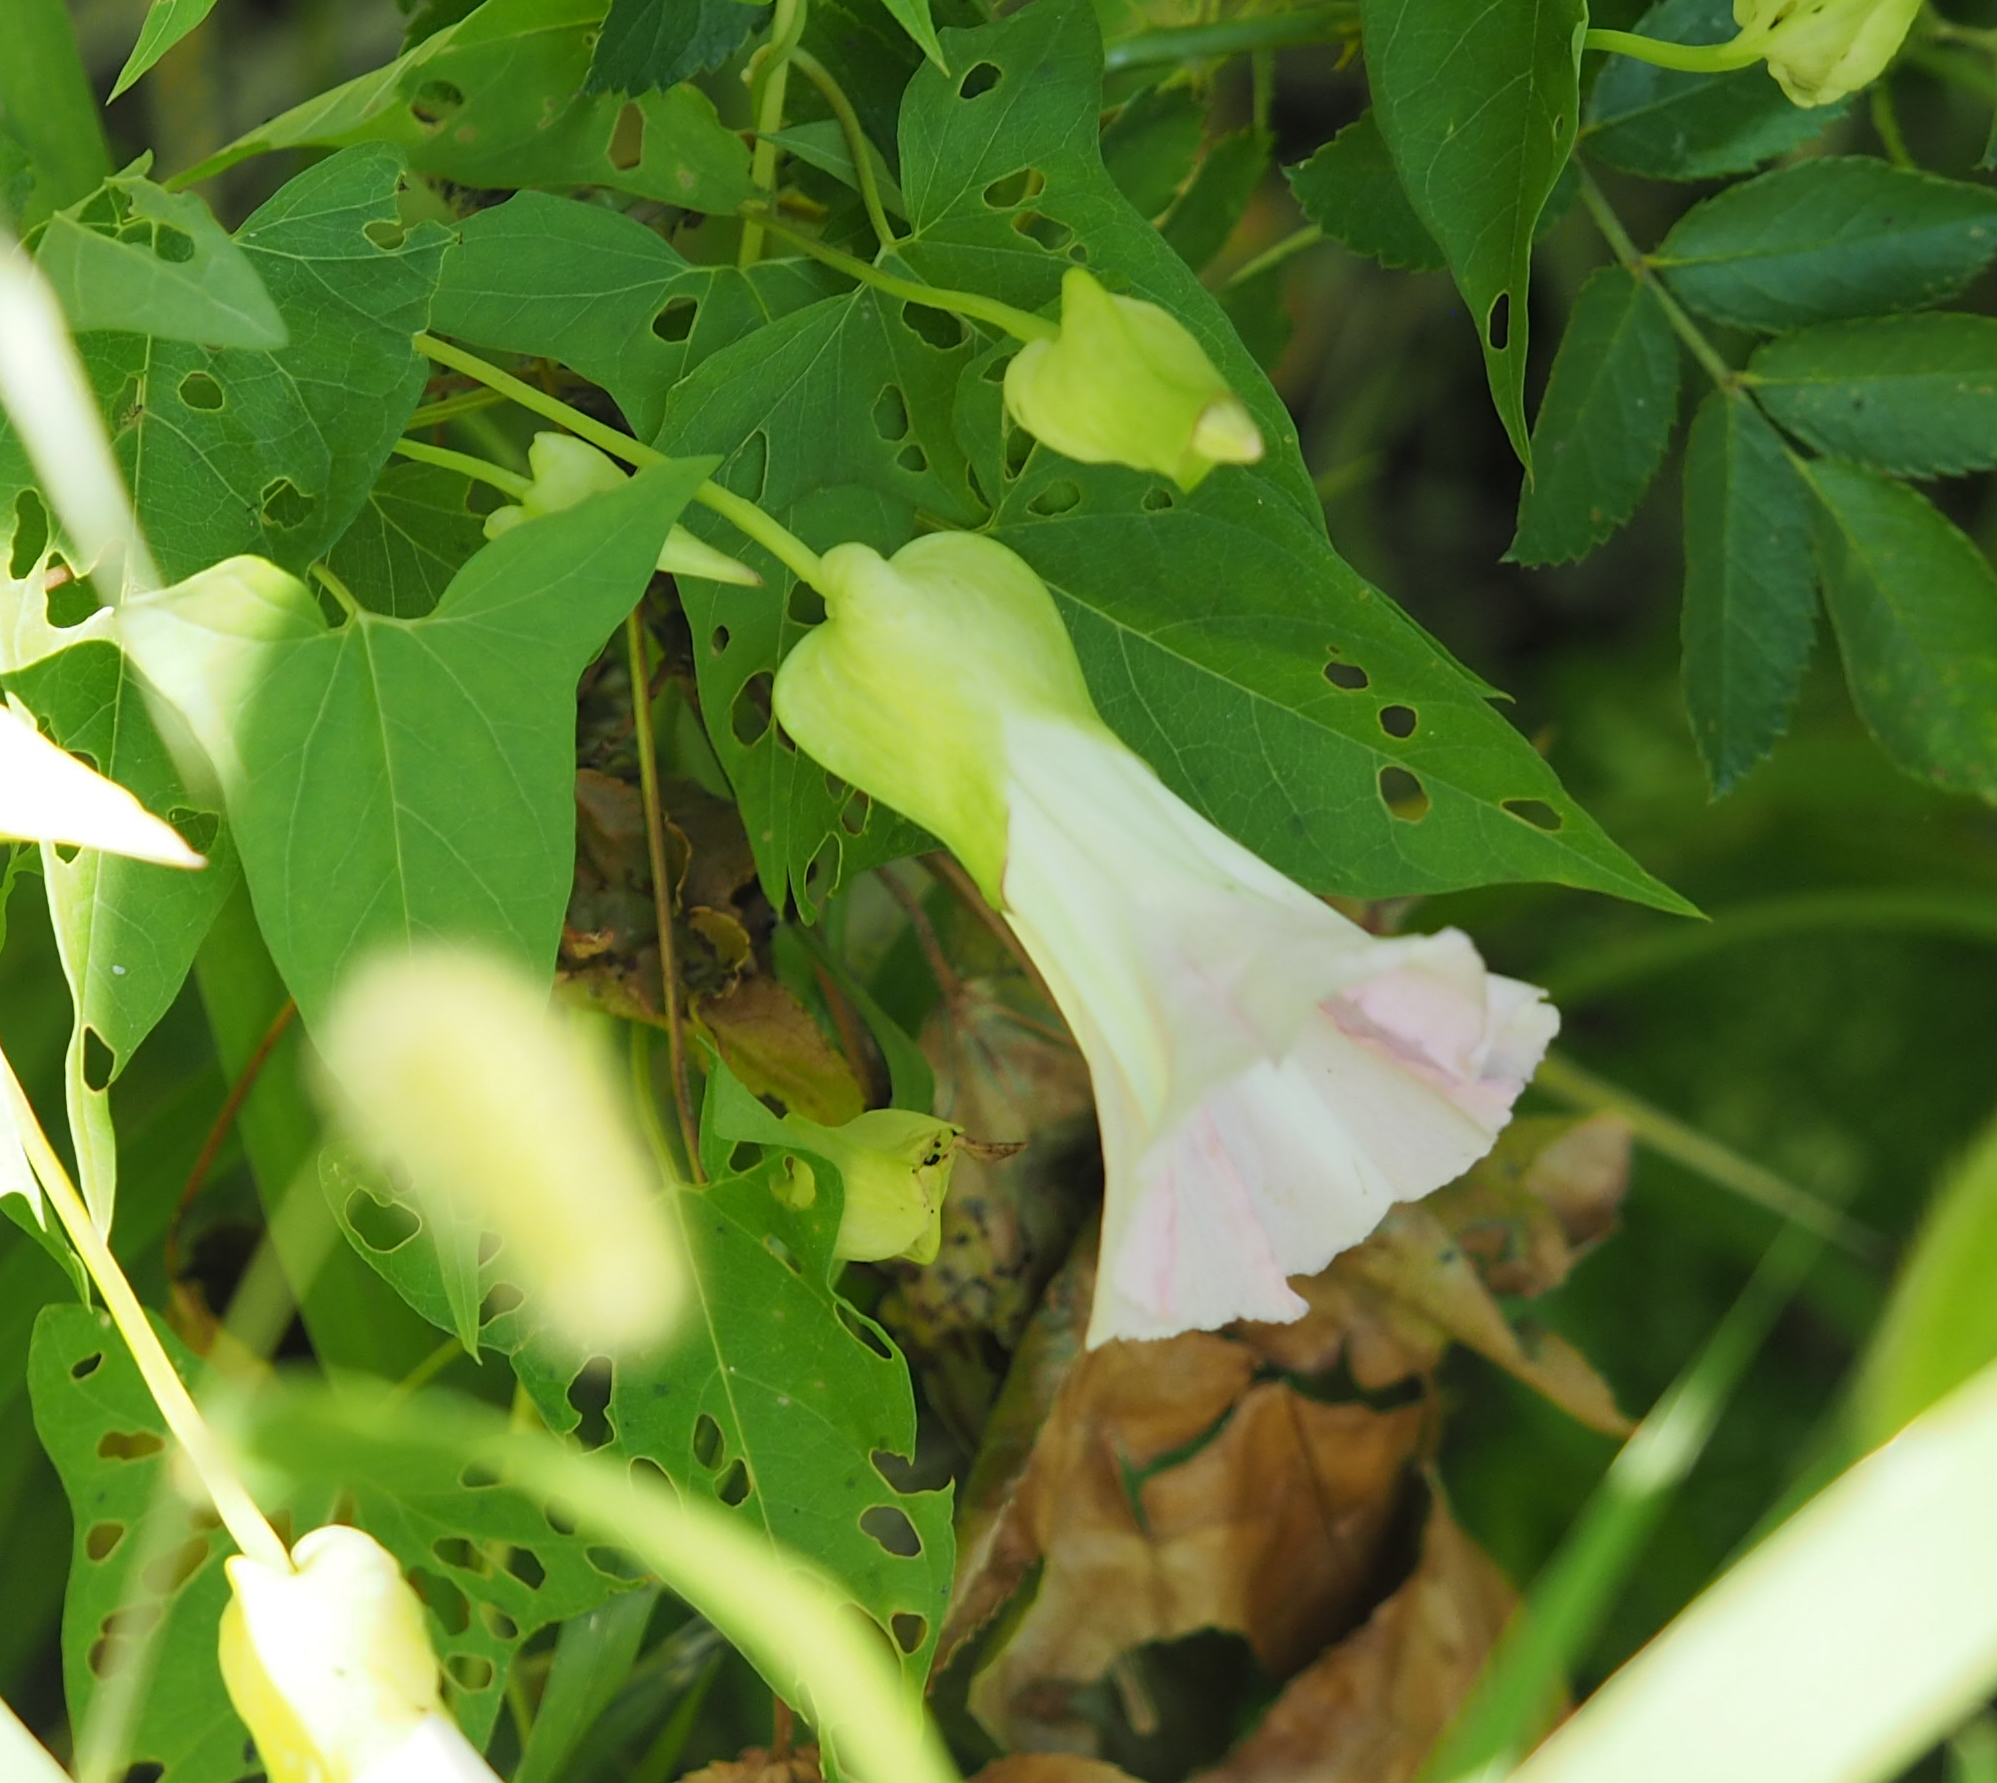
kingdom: Plantae
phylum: Tracheophyta
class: Magnoliopsida
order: Solanales
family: Convolvulaceae
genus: Calystegia
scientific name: Calystegia sepium
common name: Hedge bindweed
